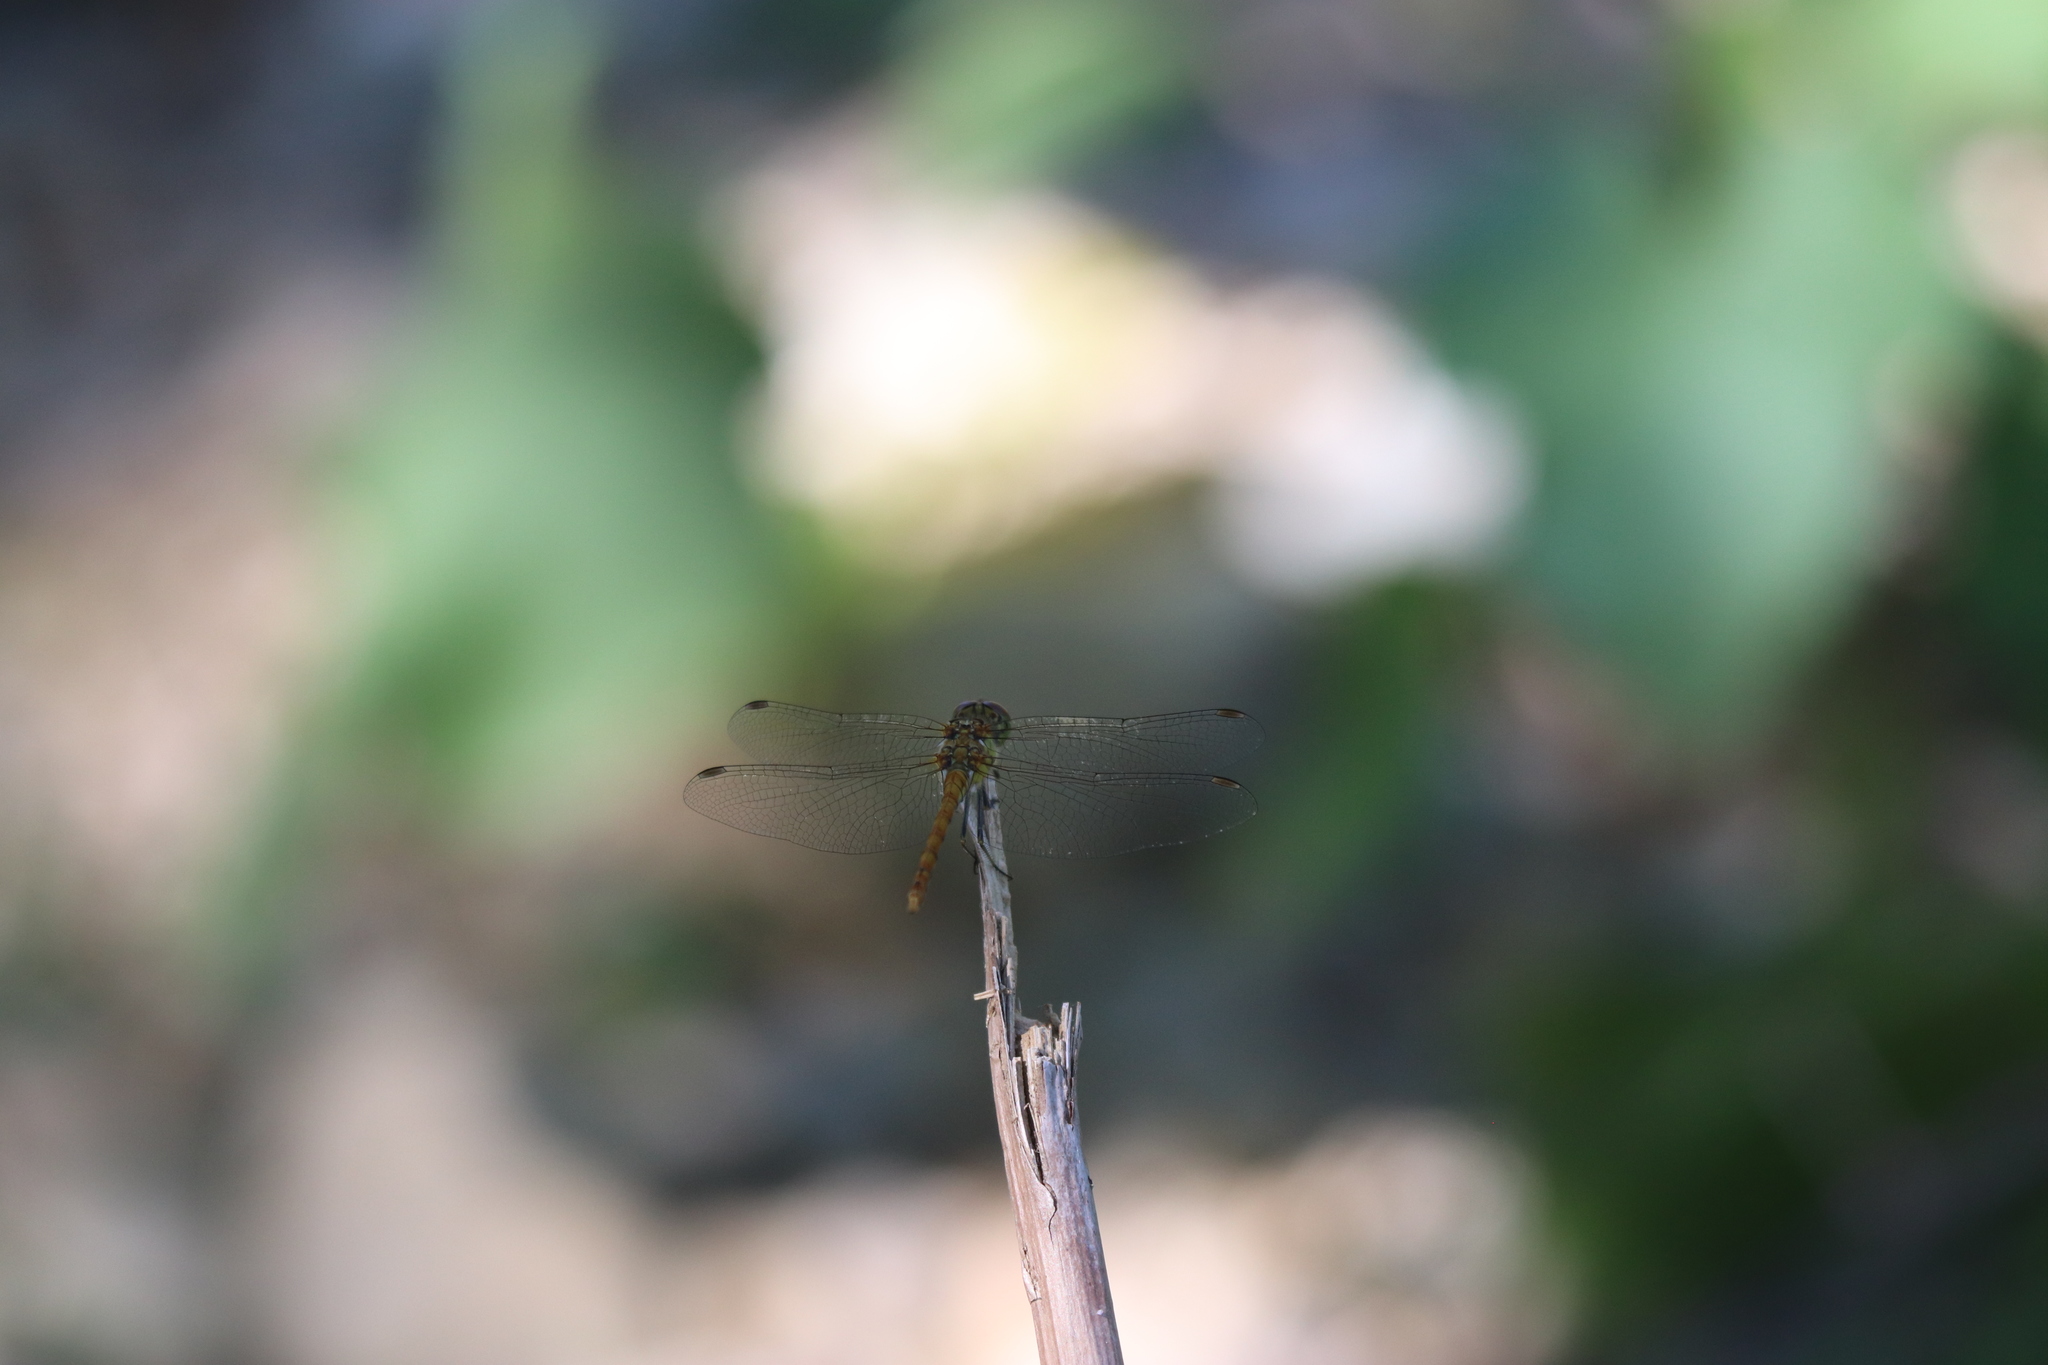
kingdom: Animalia
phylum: Arthropoda
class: Insecta
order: Odonata
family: Libellulidae
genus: Sympetrum
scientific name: Sympetrum striolatum
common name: Common darter
